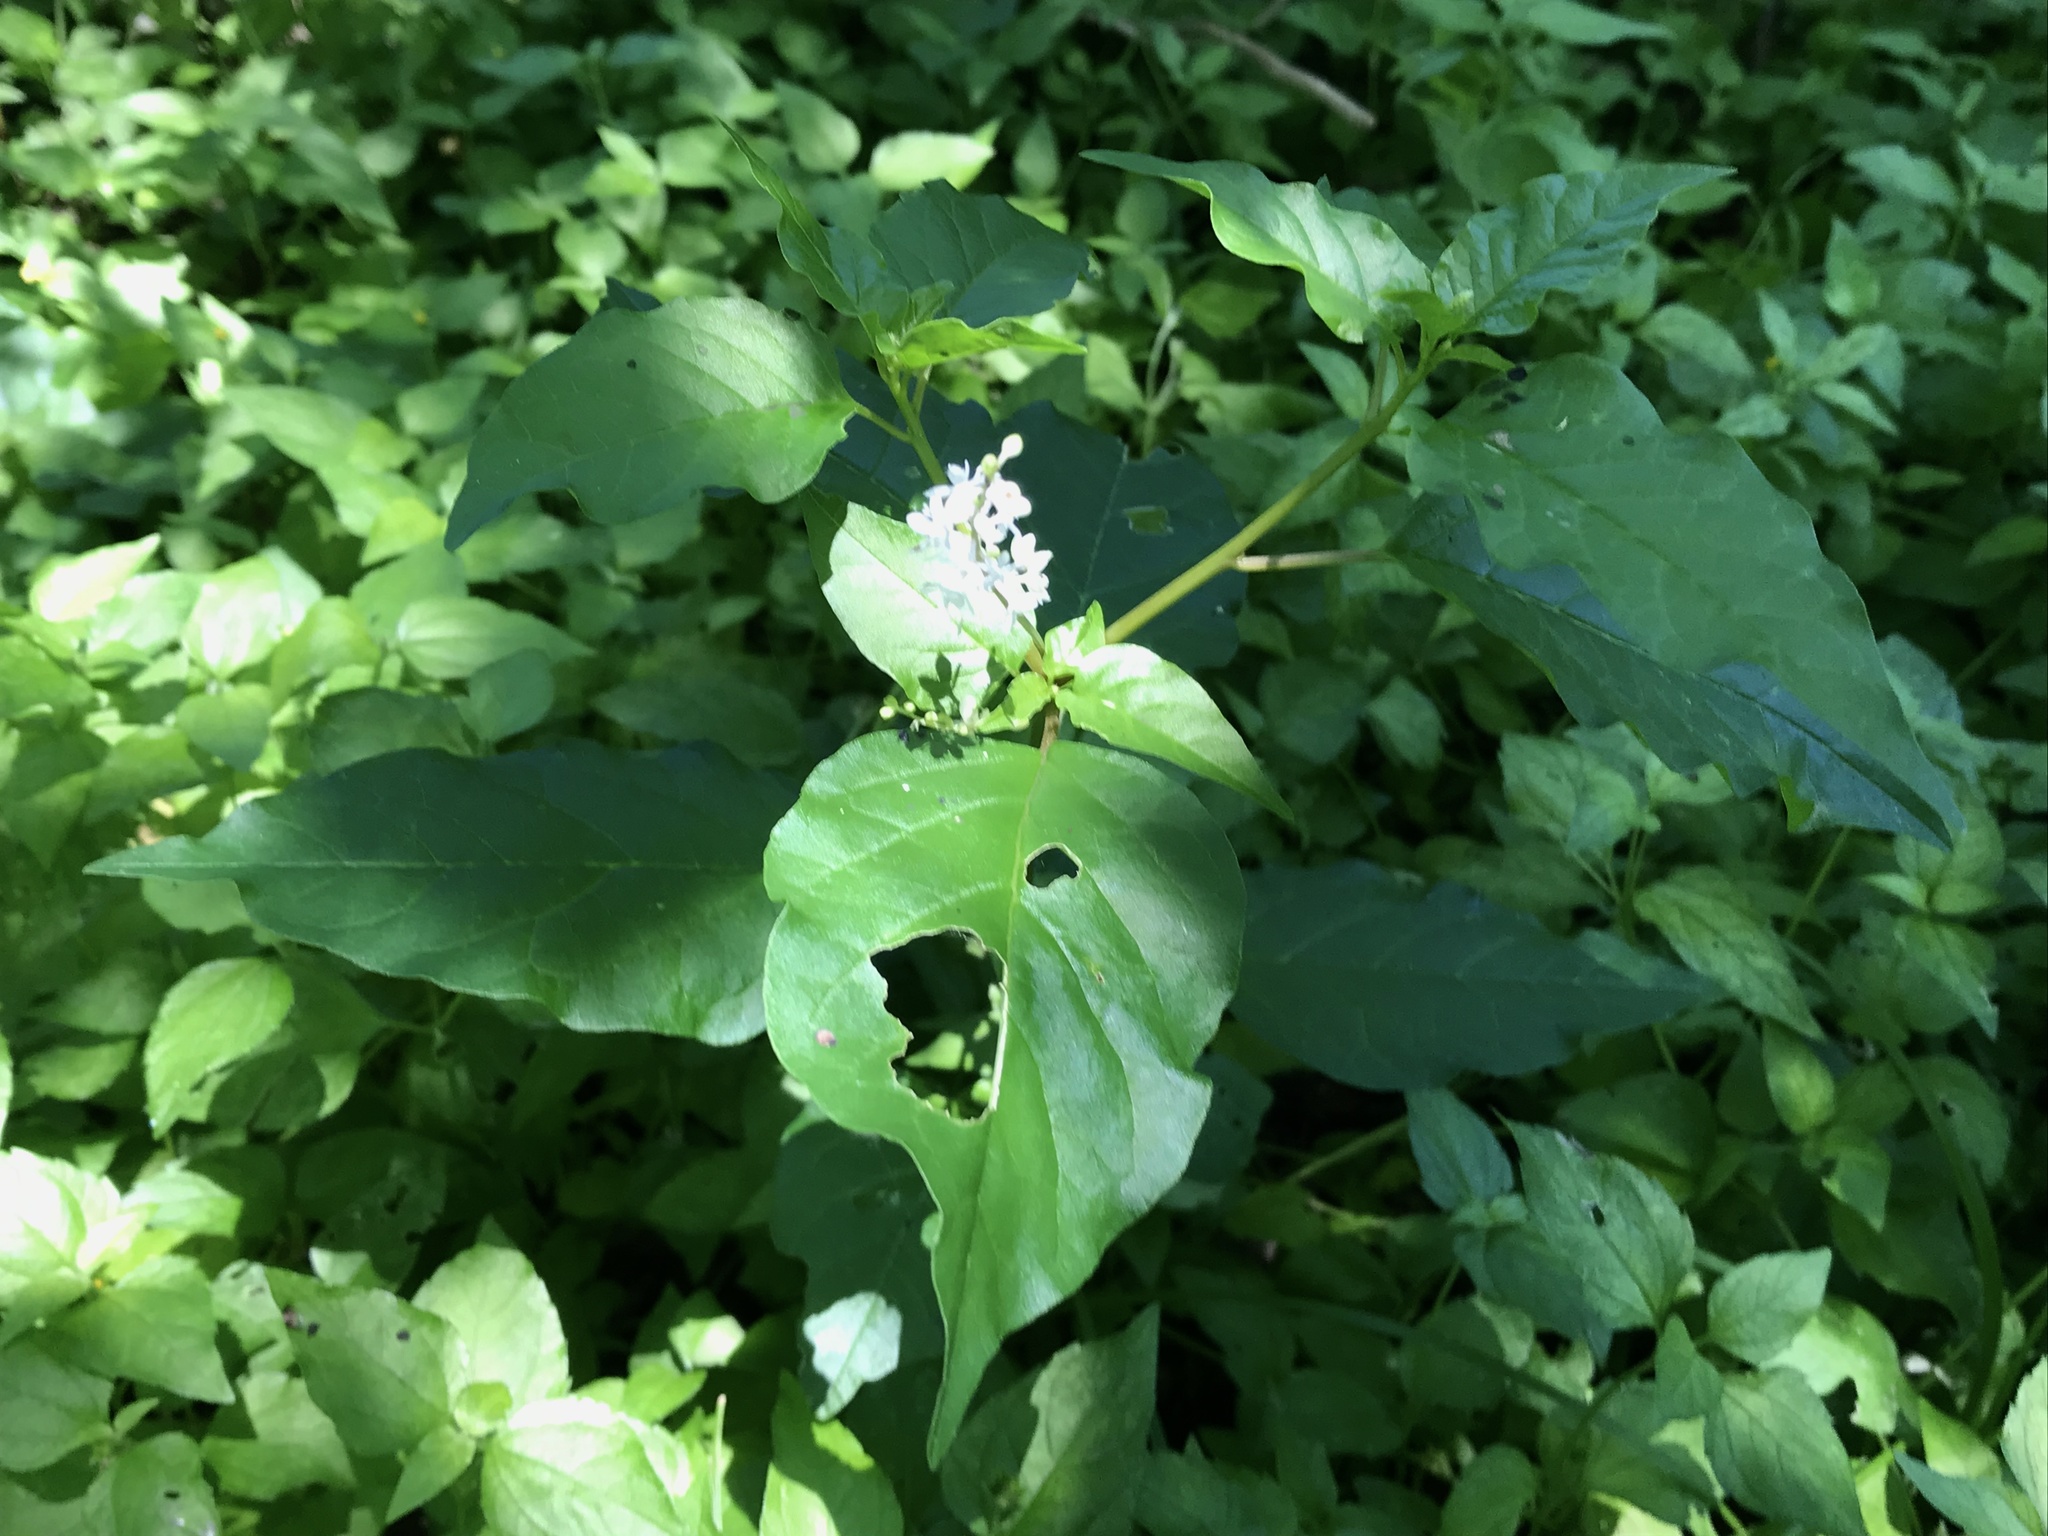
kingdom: Plantae
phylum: Tracheophyta
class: Magnoliopsida
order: Caryophyllales
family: Phytolaccaceae
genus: Rivina
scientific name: Rivina humilis
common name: Rougeplant
